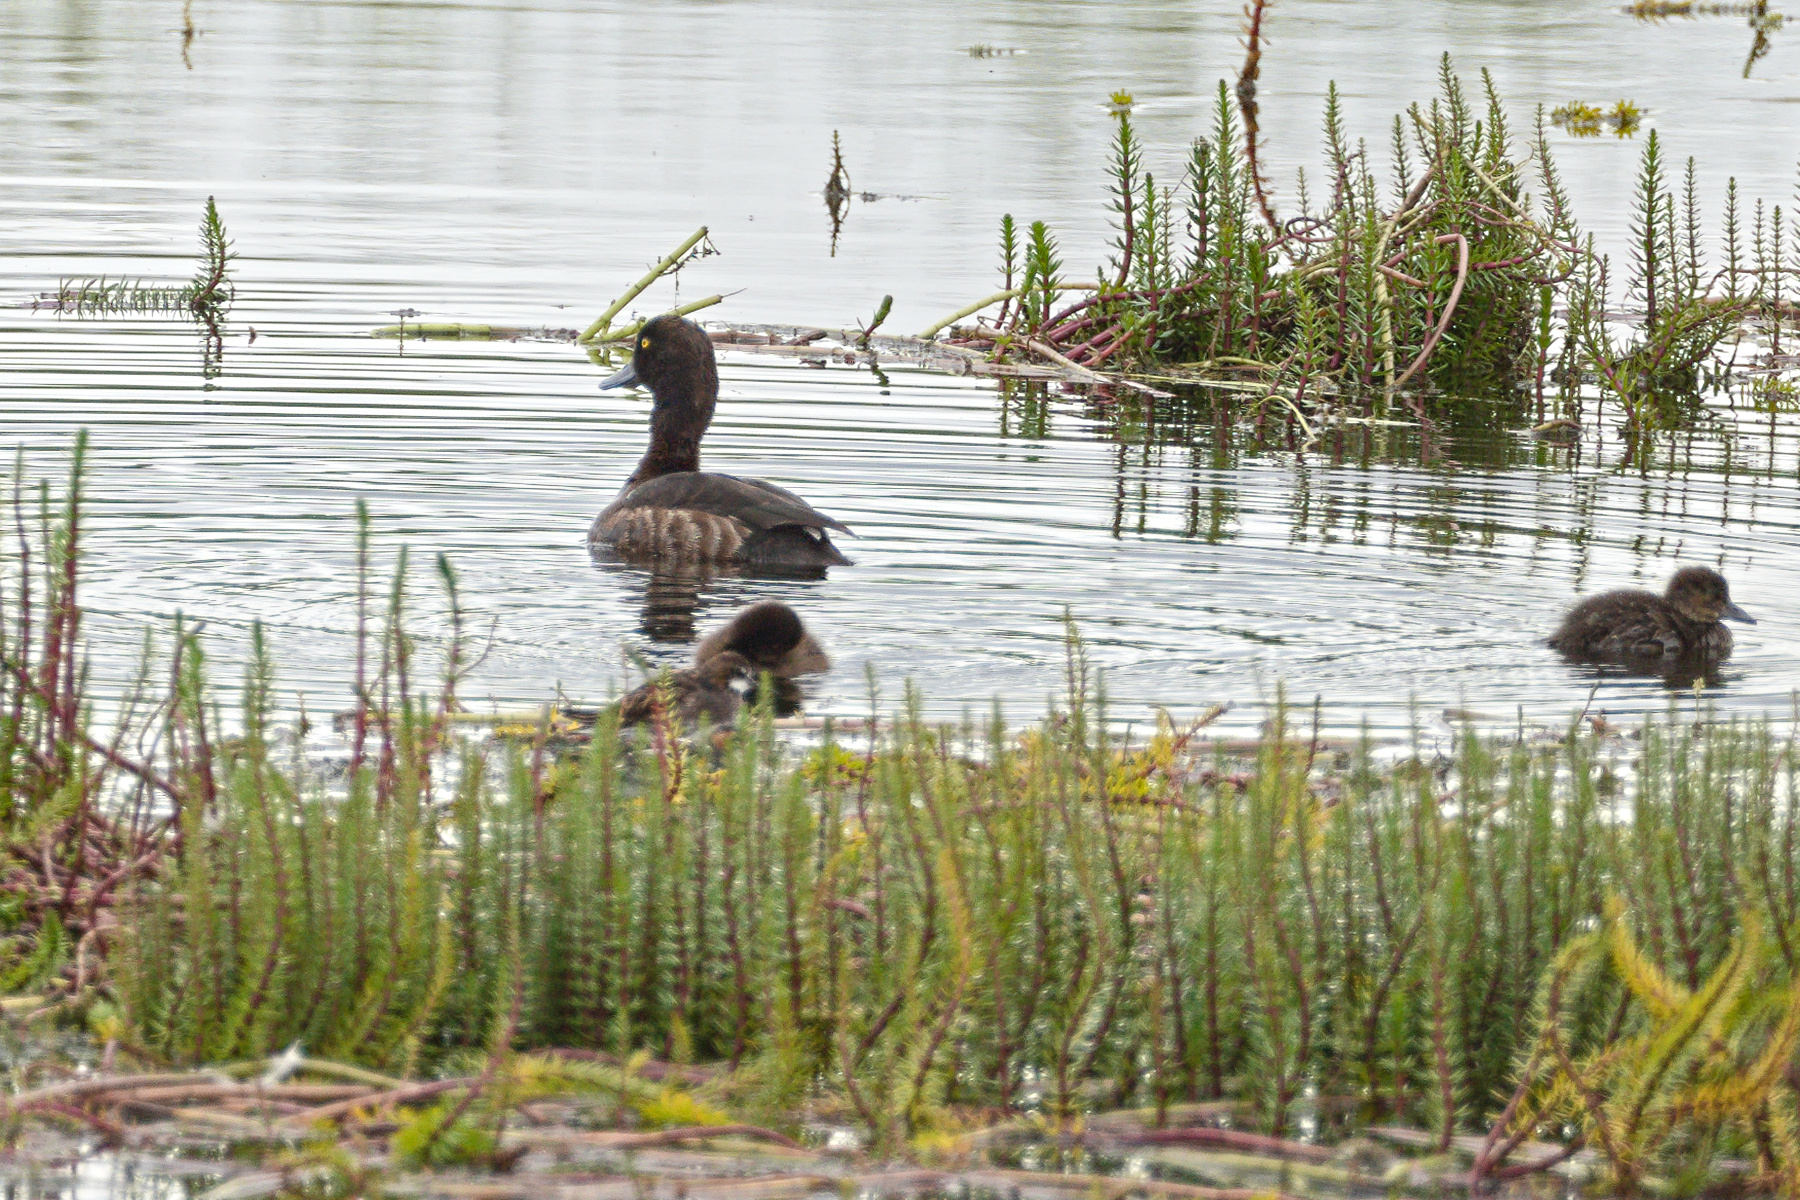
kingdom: Animalia
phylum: Chordata
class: Aves
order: Charadriiformes
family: Scolopacidae
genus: Phalaropus
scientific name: Phalaropus lobatus
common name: Red-necked phalarope
